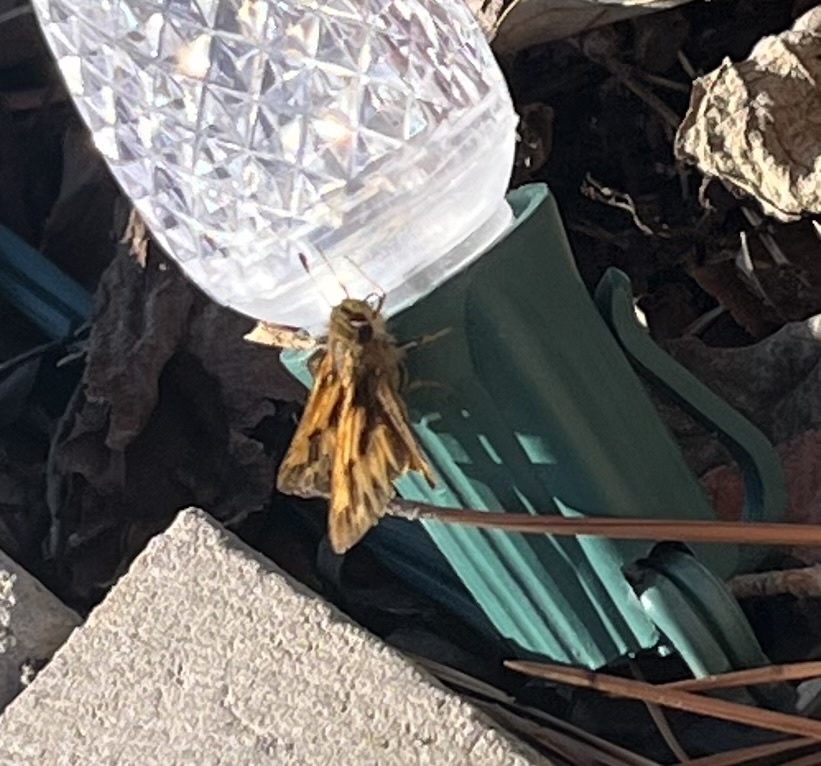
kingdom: Animalia
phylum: Arthropoda
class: Insecta
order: Lepidoptera
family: Hesperiidae
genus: Hylephila
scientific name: Hylephila phyleus
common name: Fiery skipper
